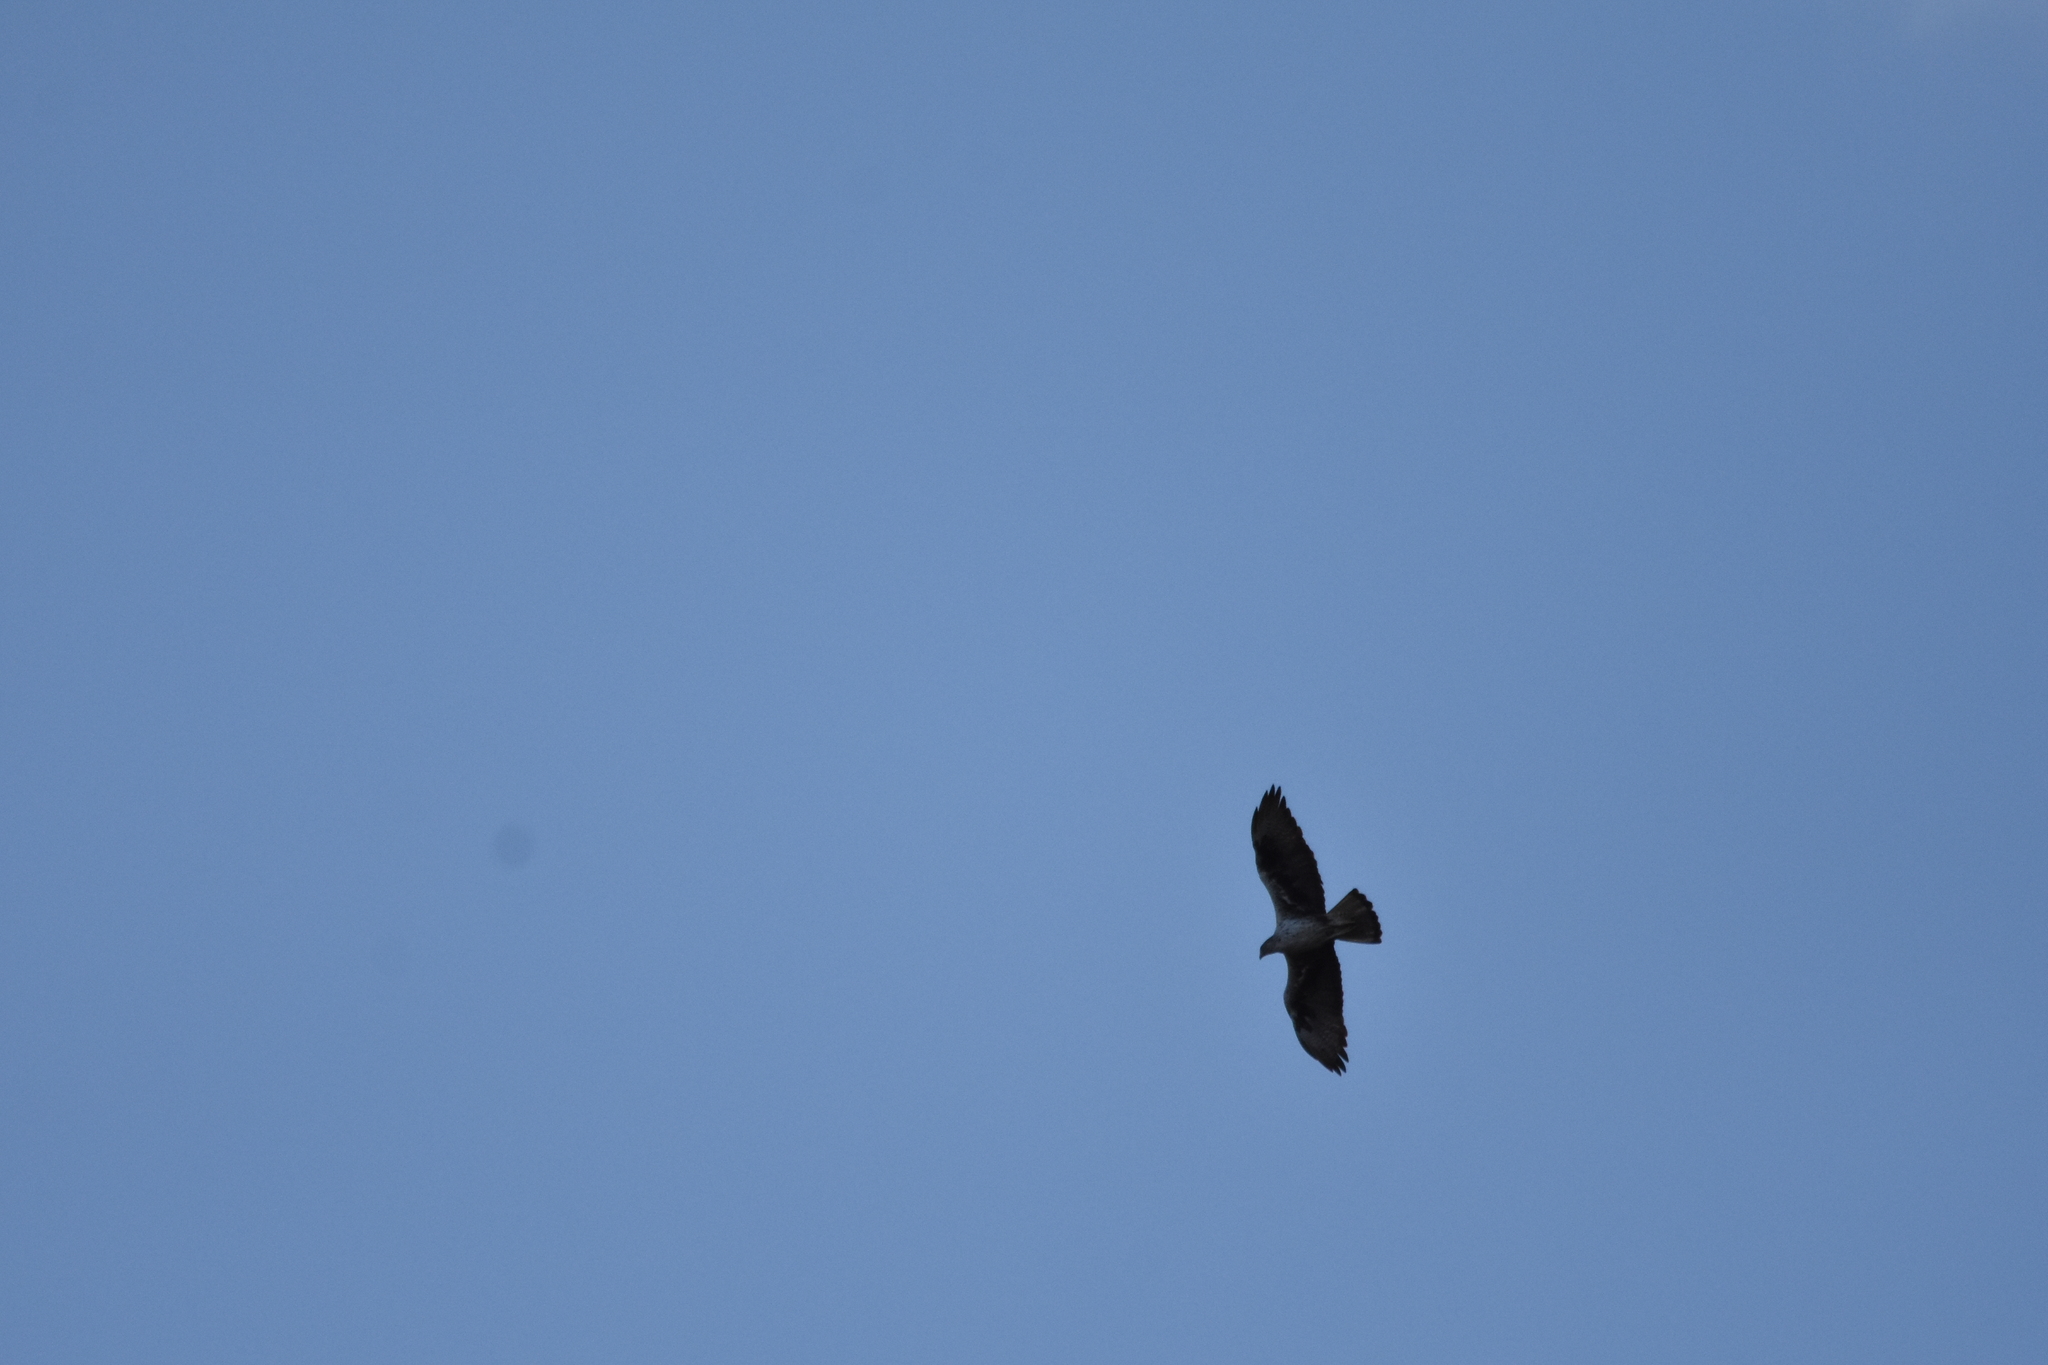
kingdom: Animalia
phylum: Chordata
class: Aves
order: Accipitriformes
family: Accipitridae
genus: Aquila
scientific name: Aquila fasciata
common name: Bonelli's eagle
